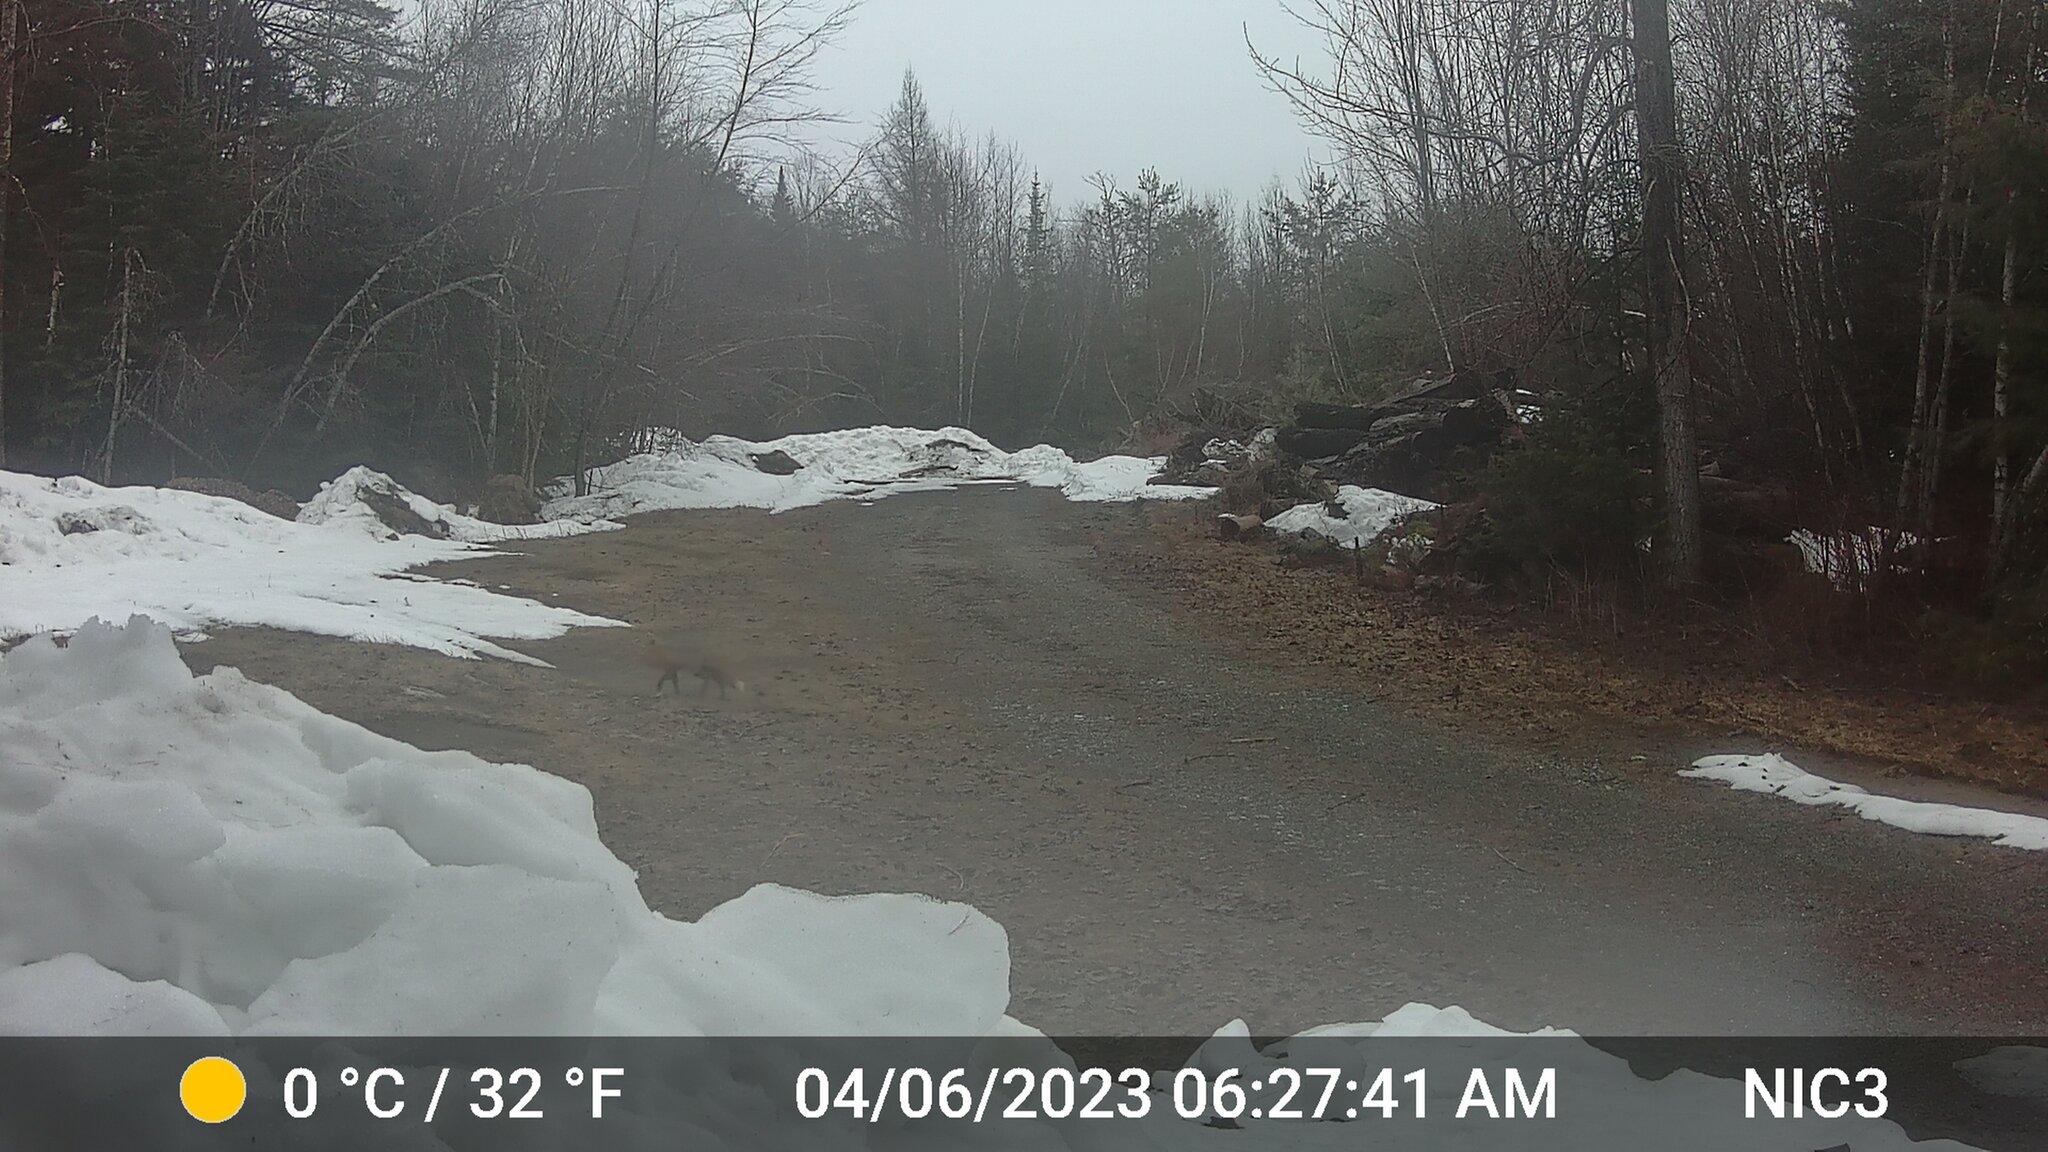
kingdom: Animalia
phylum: Chordata
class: Mammalia
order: Carnivora
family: Canidae
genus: Vulpes
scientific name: Vulpes vulpes
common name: Red fox
